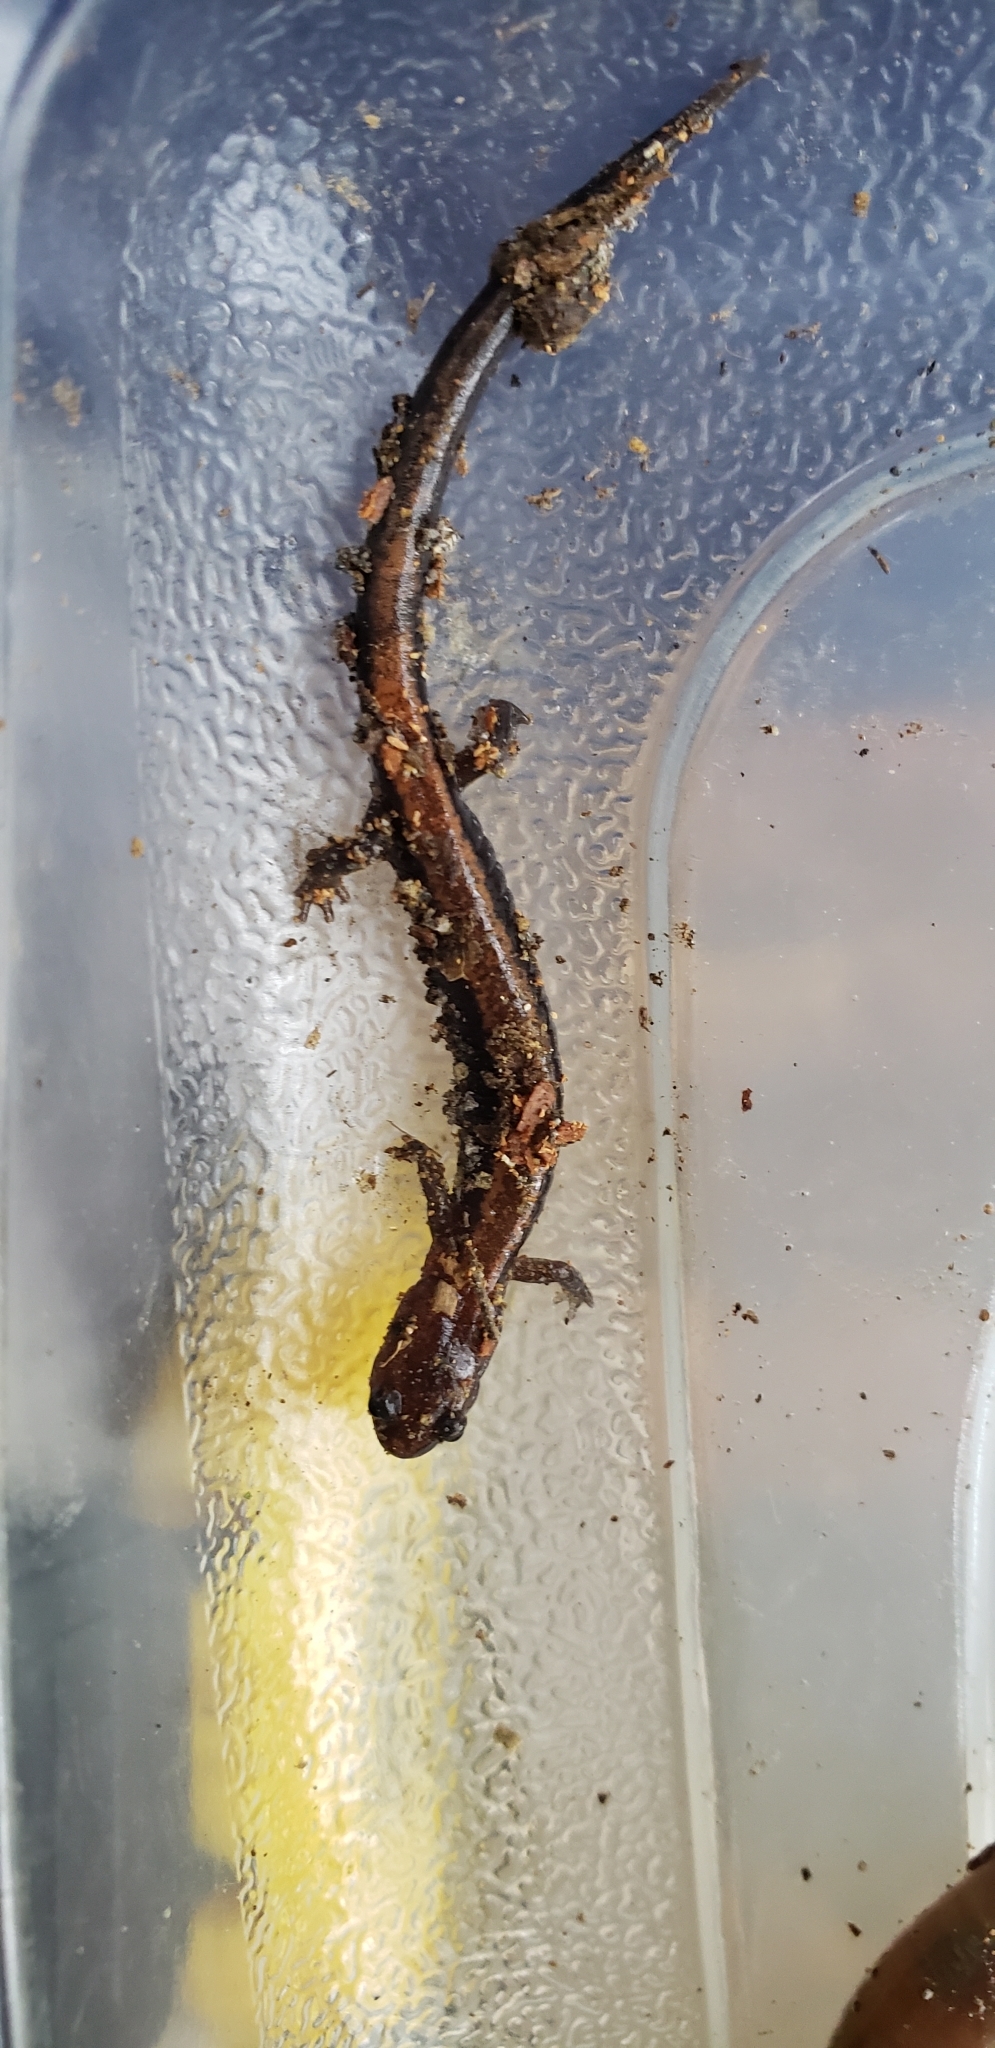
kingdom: Animalia
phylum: Chordata
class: Amphibia
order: Caudata
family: Plethodontidae
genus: Plethodon
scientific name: Plethodon cinereus
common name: Redback salamander
